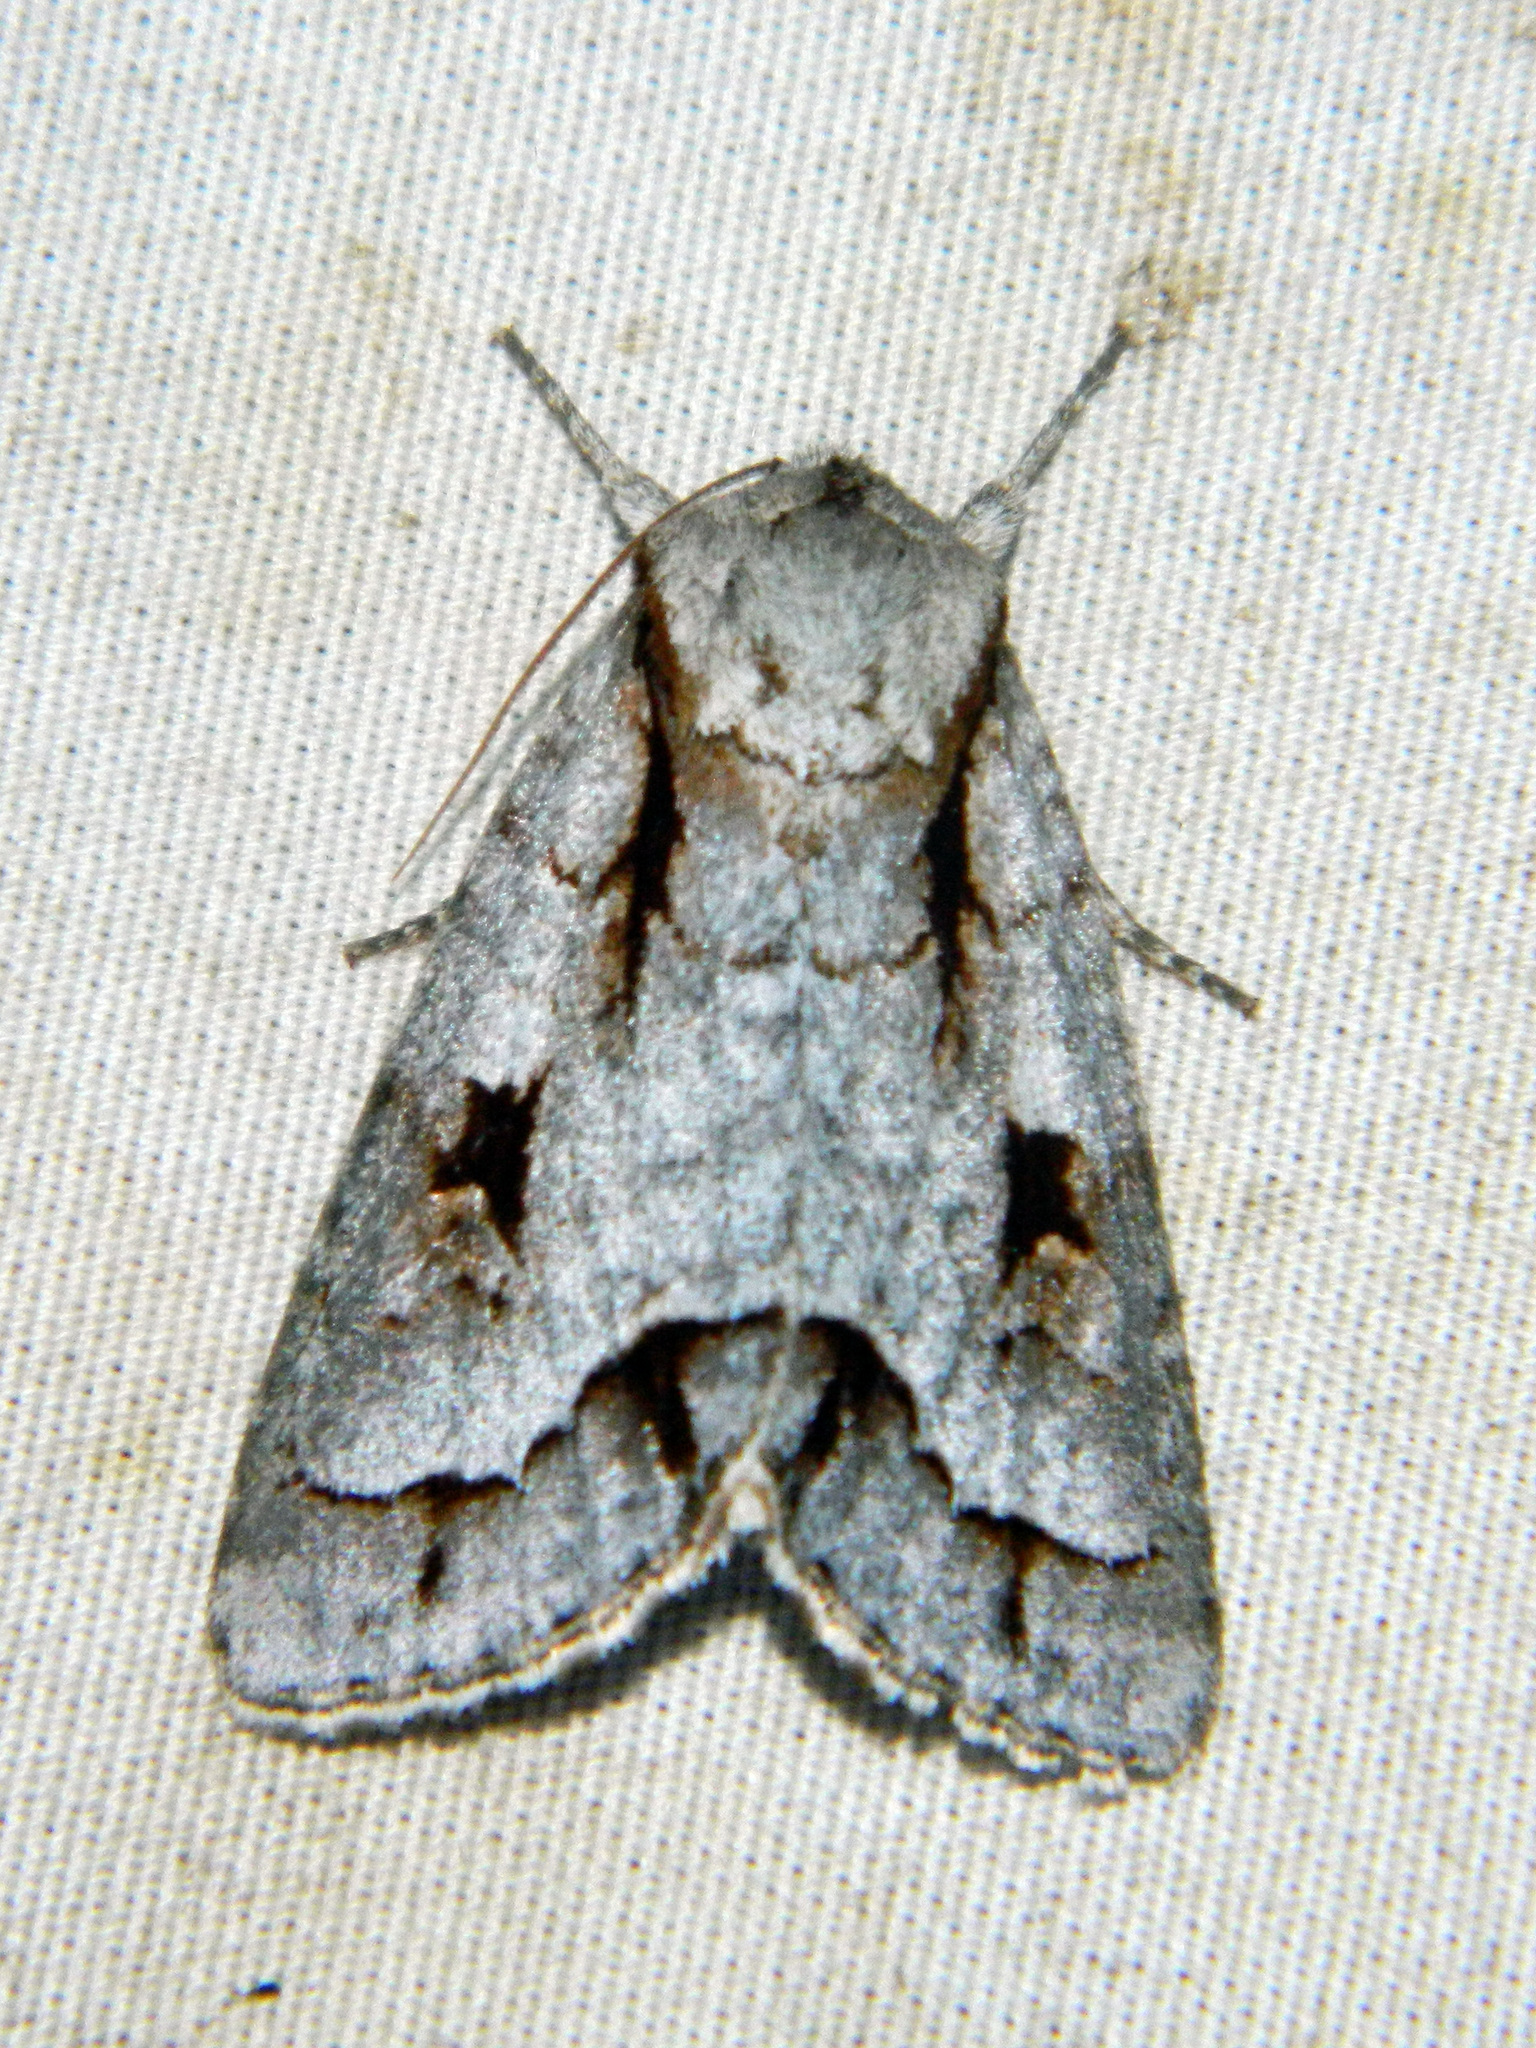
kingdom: Animalia
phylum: Arthropoda
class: Insecta
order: Lepidoptera
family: Noctuidae
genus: Acronicta
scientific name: Acronicta quadrata
